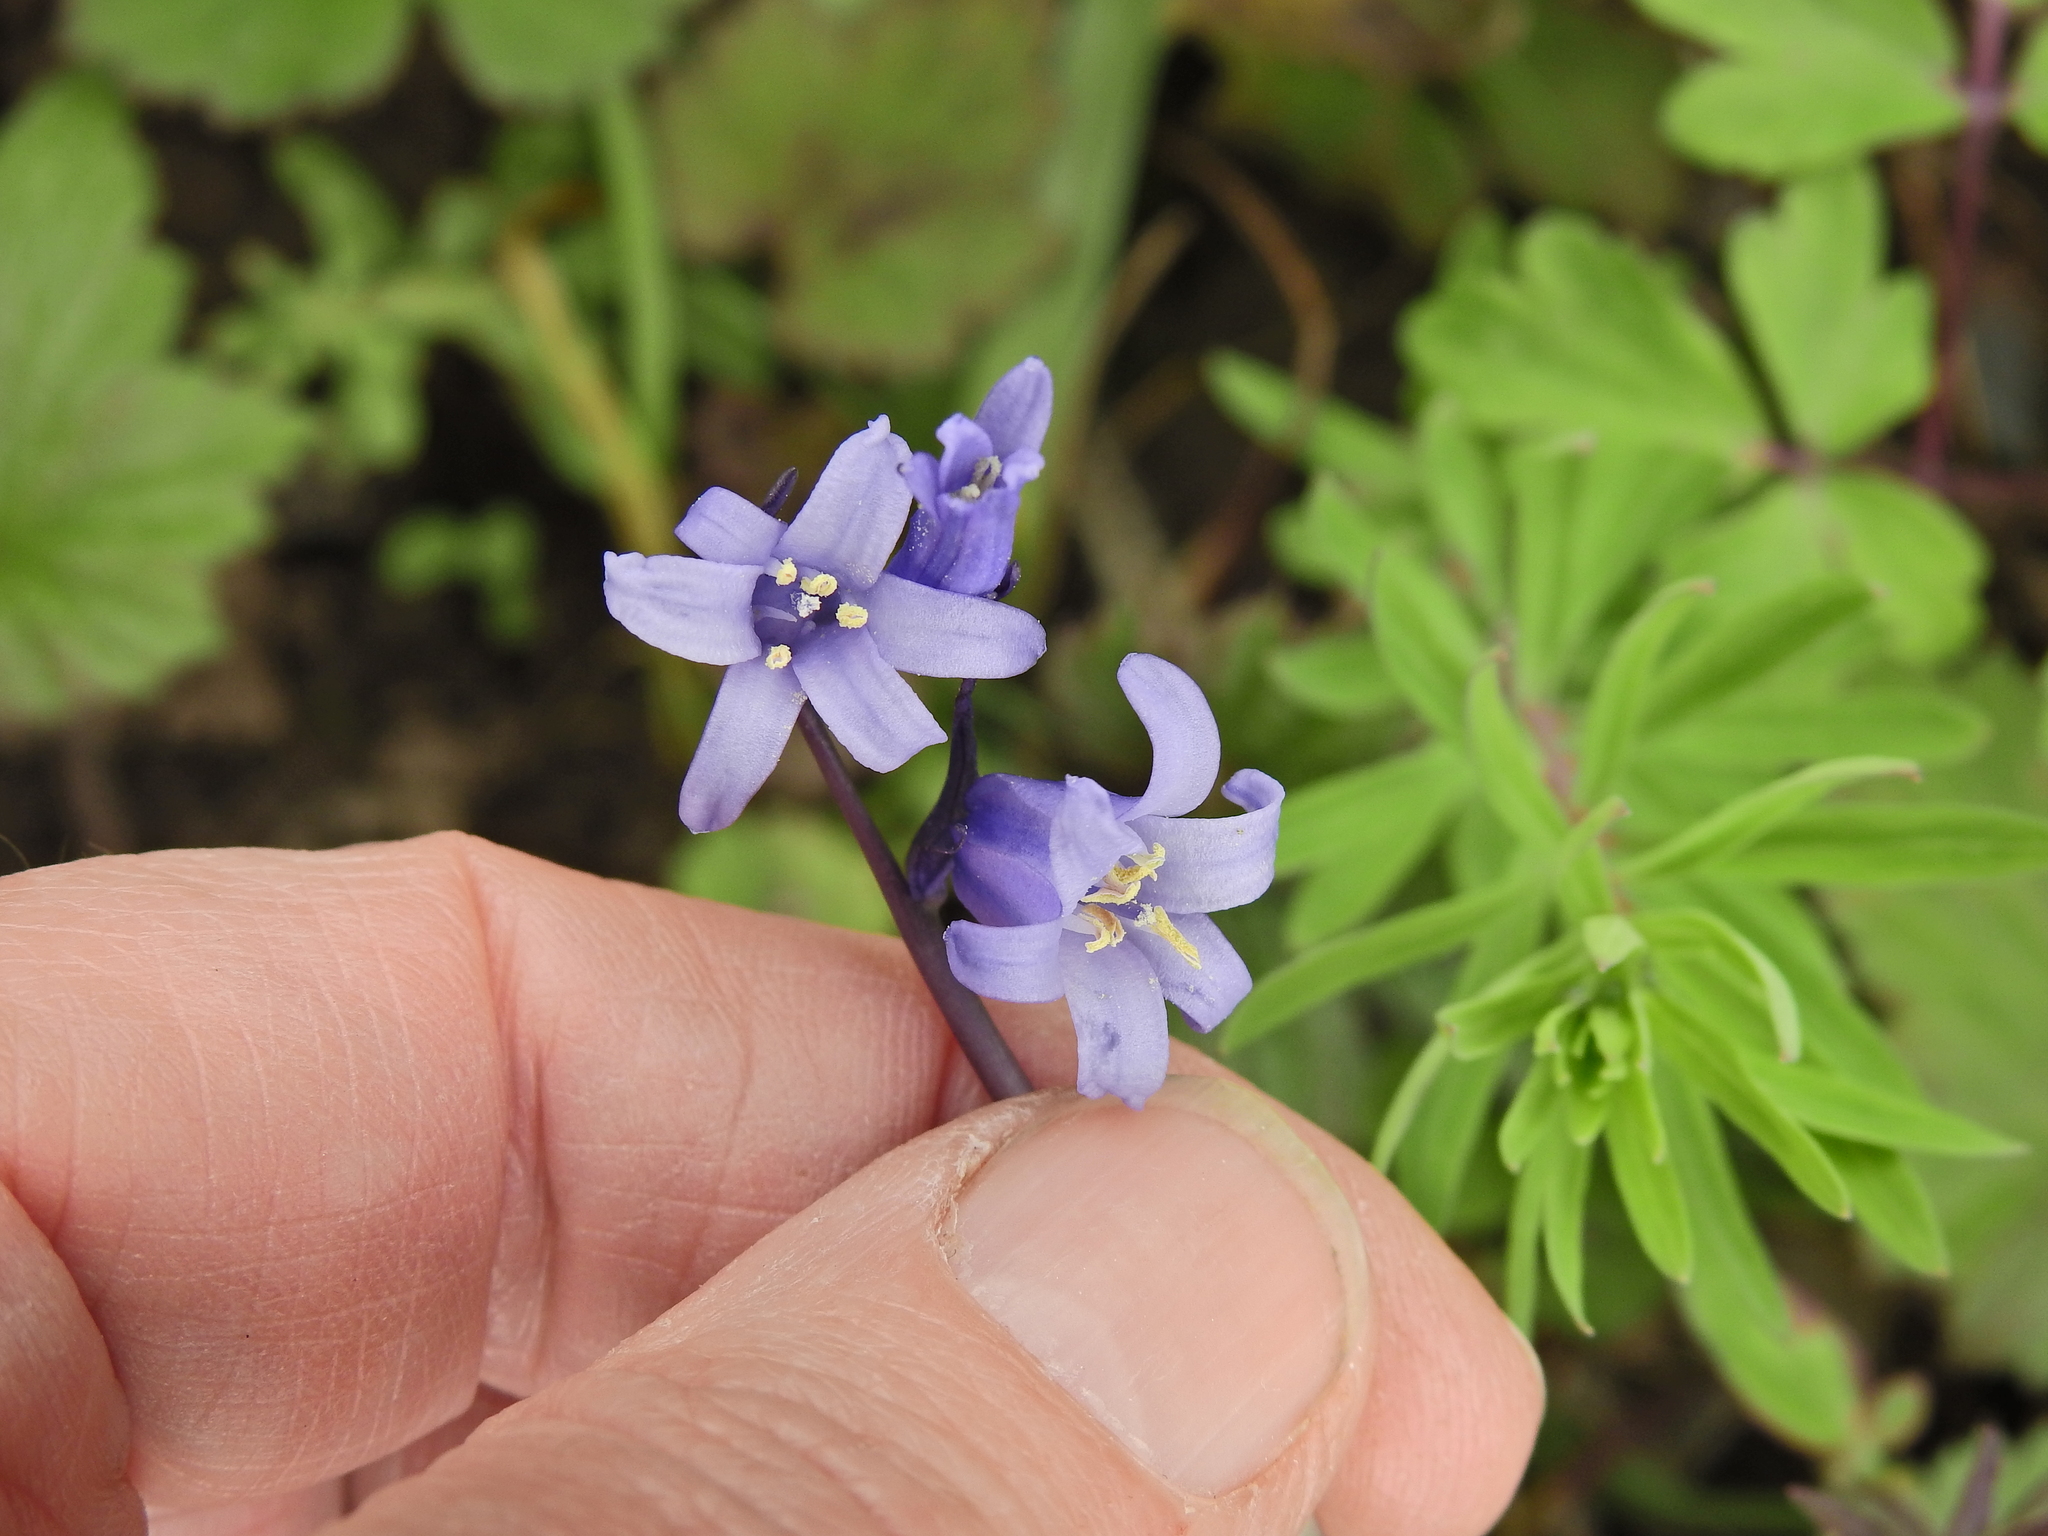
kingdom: Plantae
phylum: Tracheophyta
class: Liliopsida
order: Asparagales
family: Asparagaceae
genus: Hyacinthoides
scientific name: Hyacinthoides massartiana
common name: Hyacinthoides
